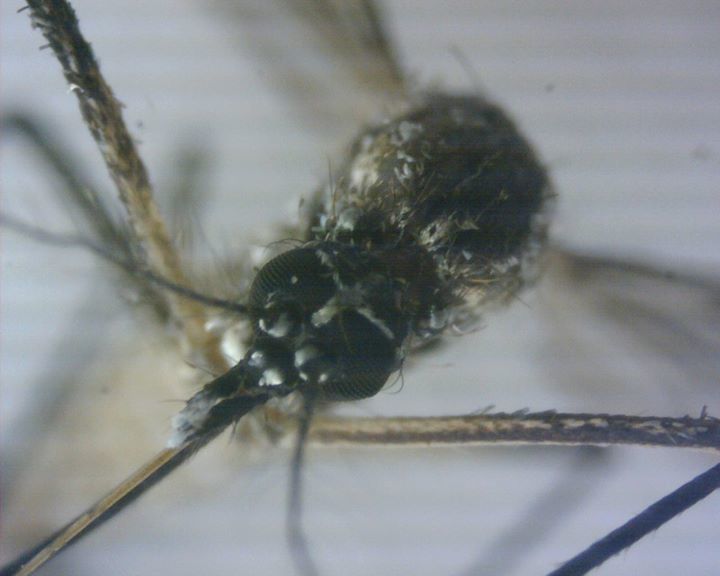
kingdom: Animalia
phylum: Arthropoda
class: Insecta
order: Diptera
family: Culicidae
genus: Aedes
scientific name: Aedes aegypti
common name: Yellow fever mosquito
